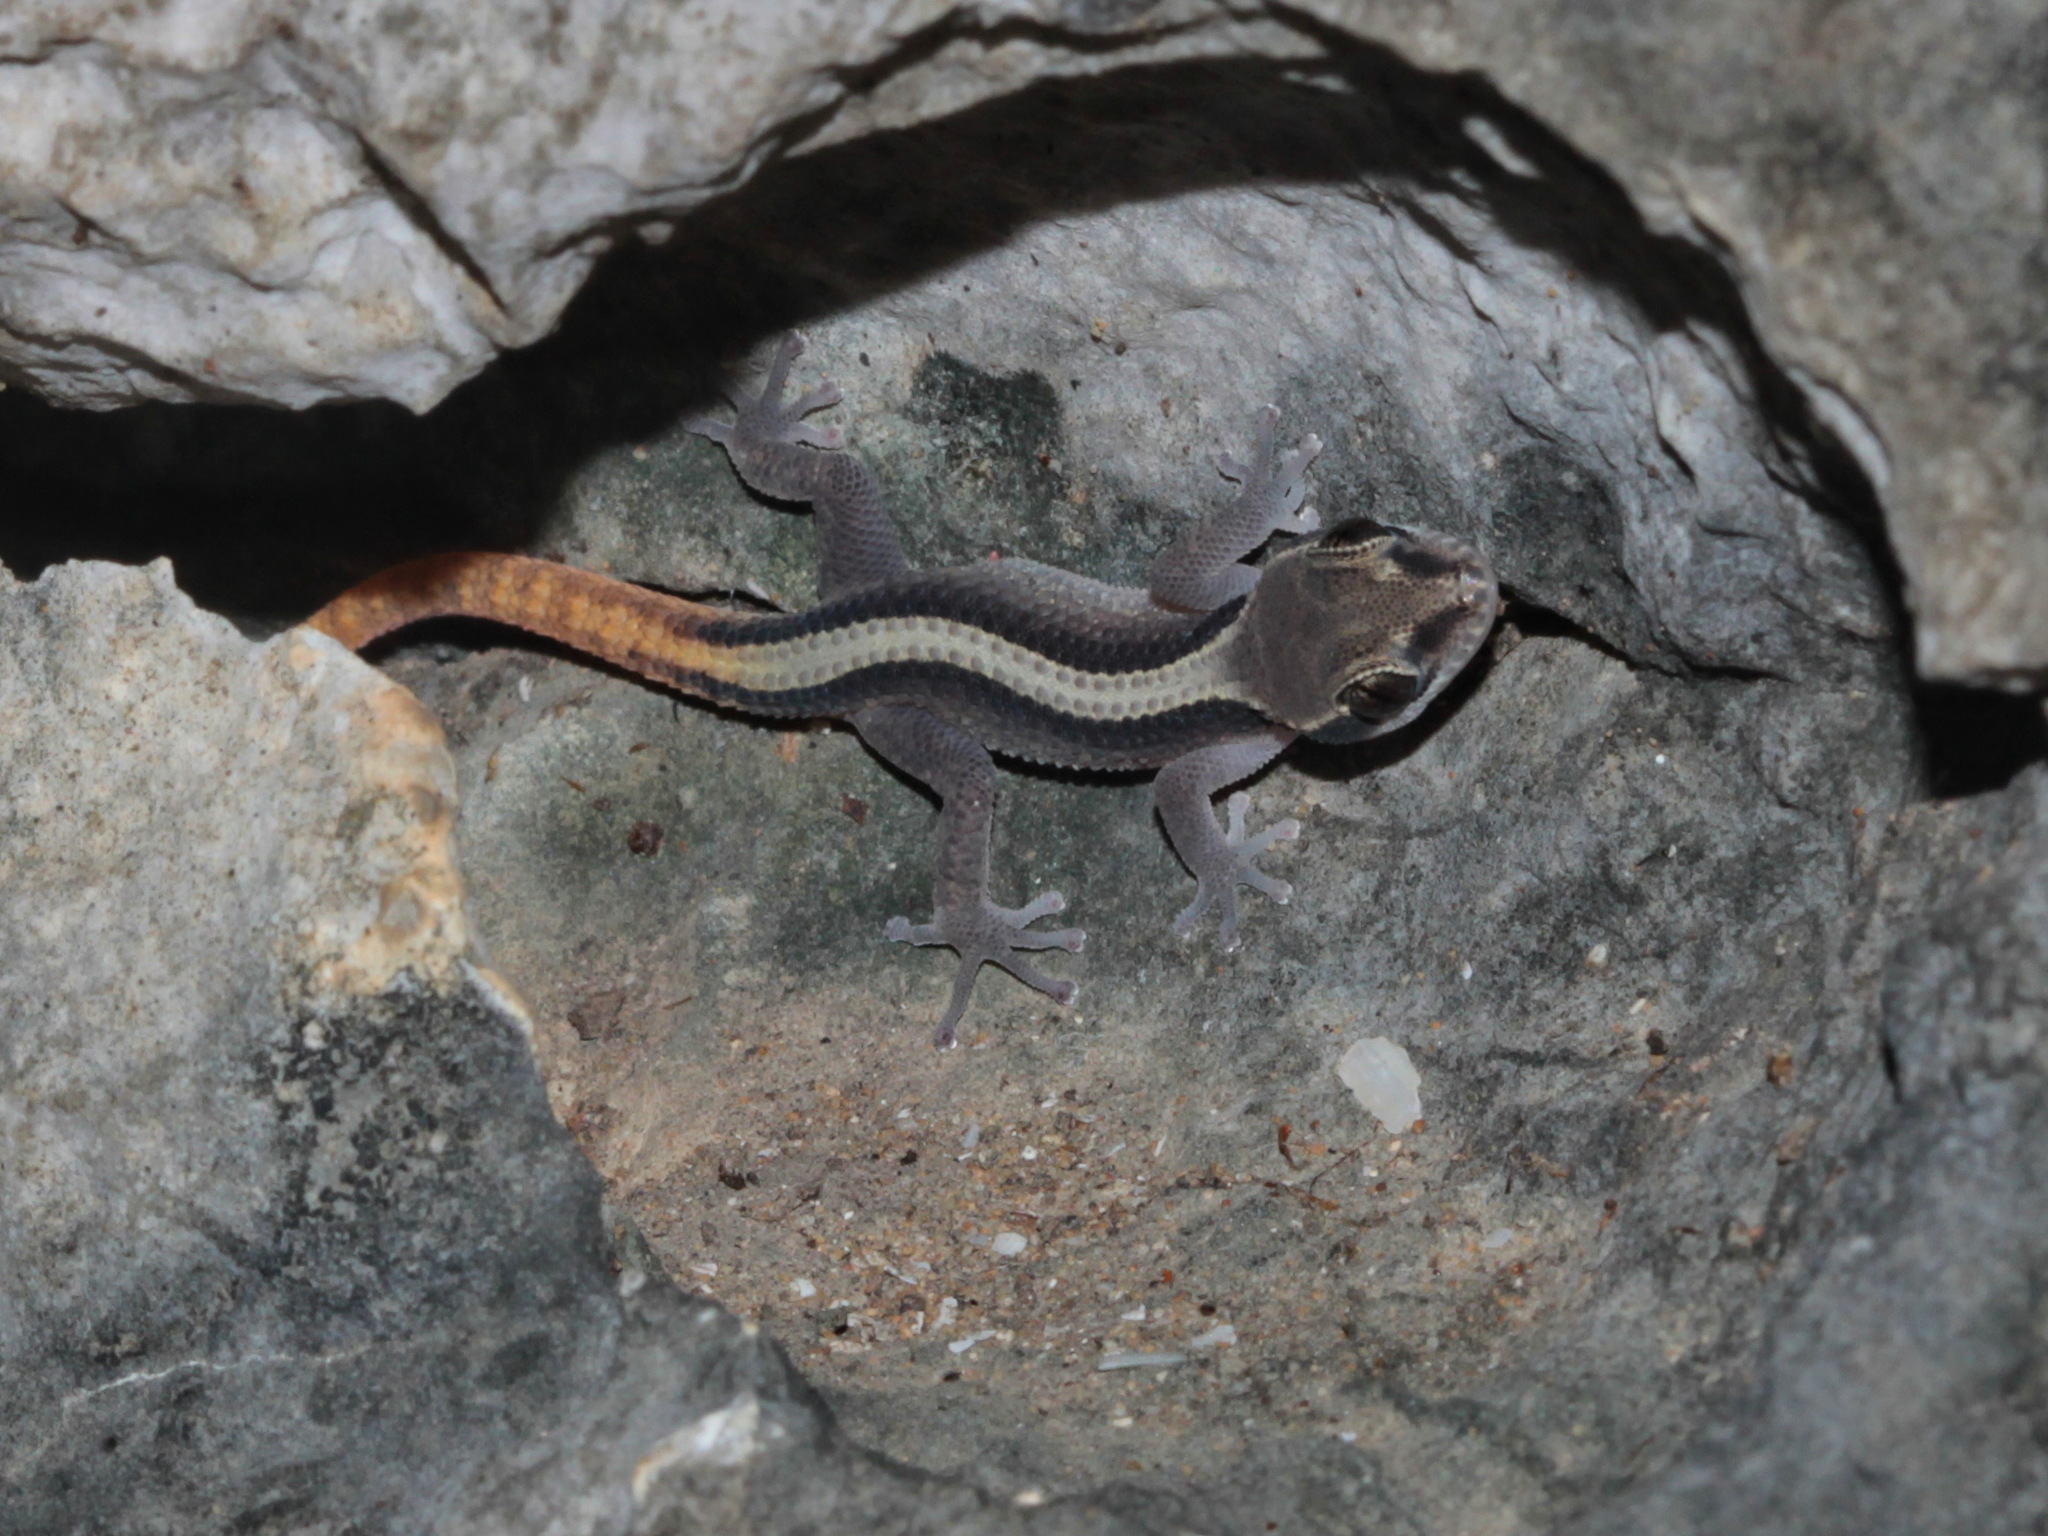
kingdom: Animalia
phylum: Chordata
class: Squamata
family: Gekkonidae
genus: Dixonius
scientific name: Dixonius kaweesaki
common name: Sam roi yot leaf-toed gecko
